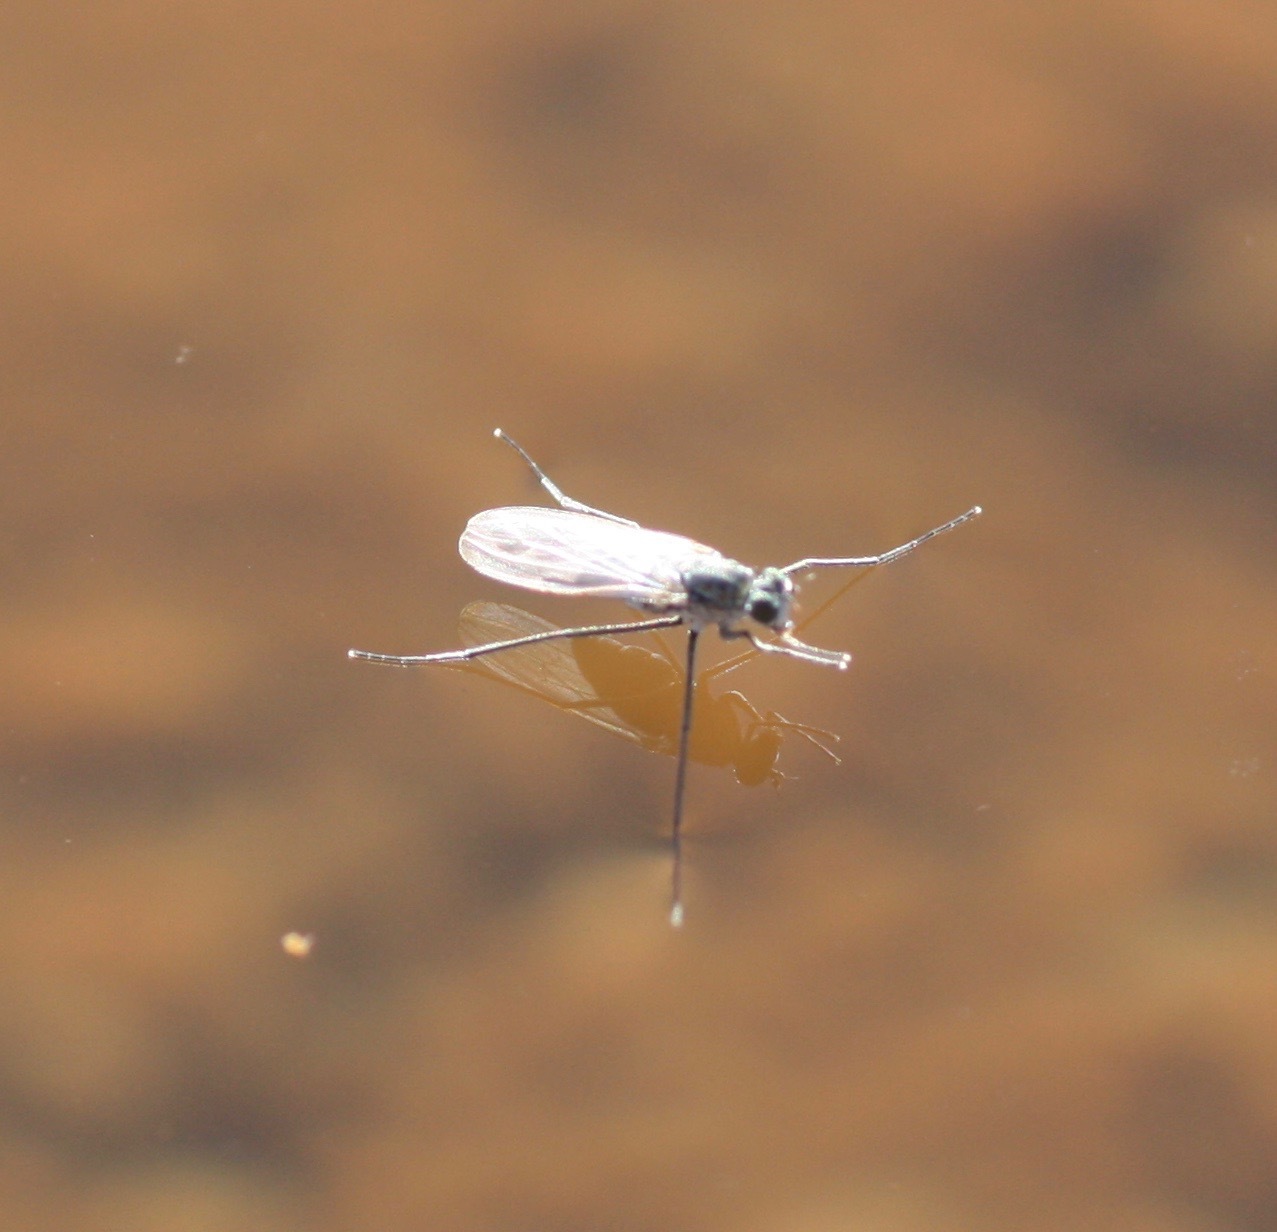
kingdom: Animalia
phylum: Arthropoda
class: Insecta
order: Diptera
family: Dolichopodidae
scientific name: Dolichopodidae
